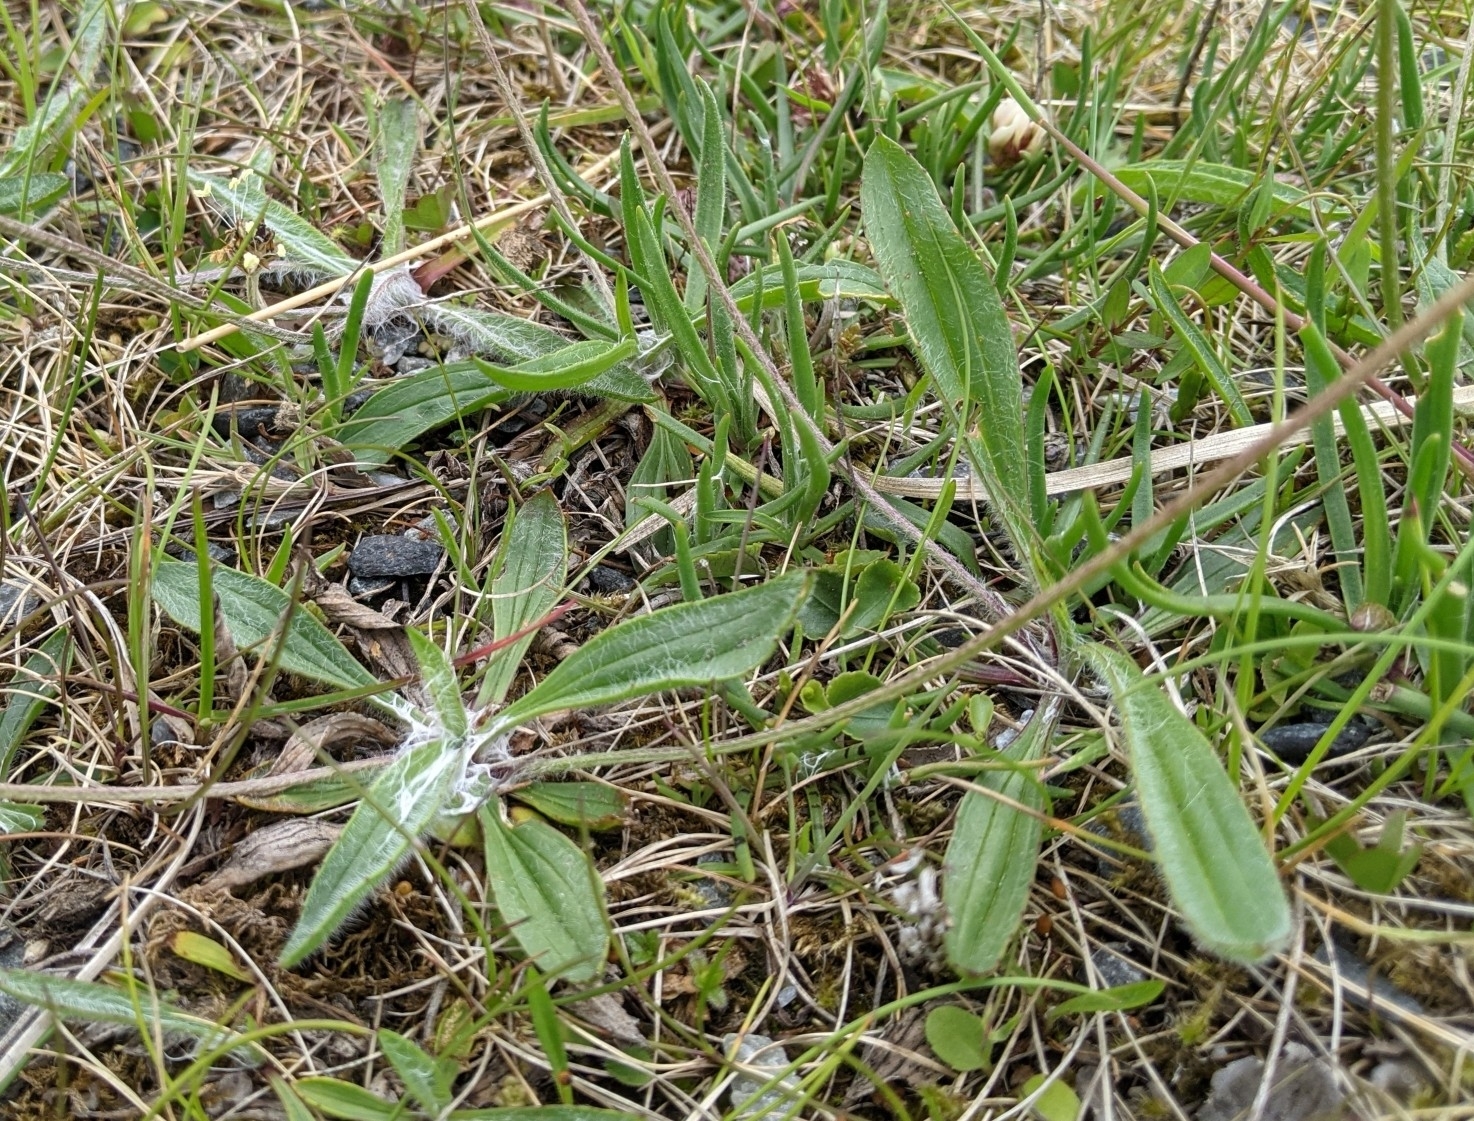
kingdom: Plantae
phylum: Tracheophyta
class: Magnoliopsida
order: Lamiales
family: Plantaginaceae
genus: Plantago
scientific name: Plantago lanceolata
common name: Ribwort plantain
